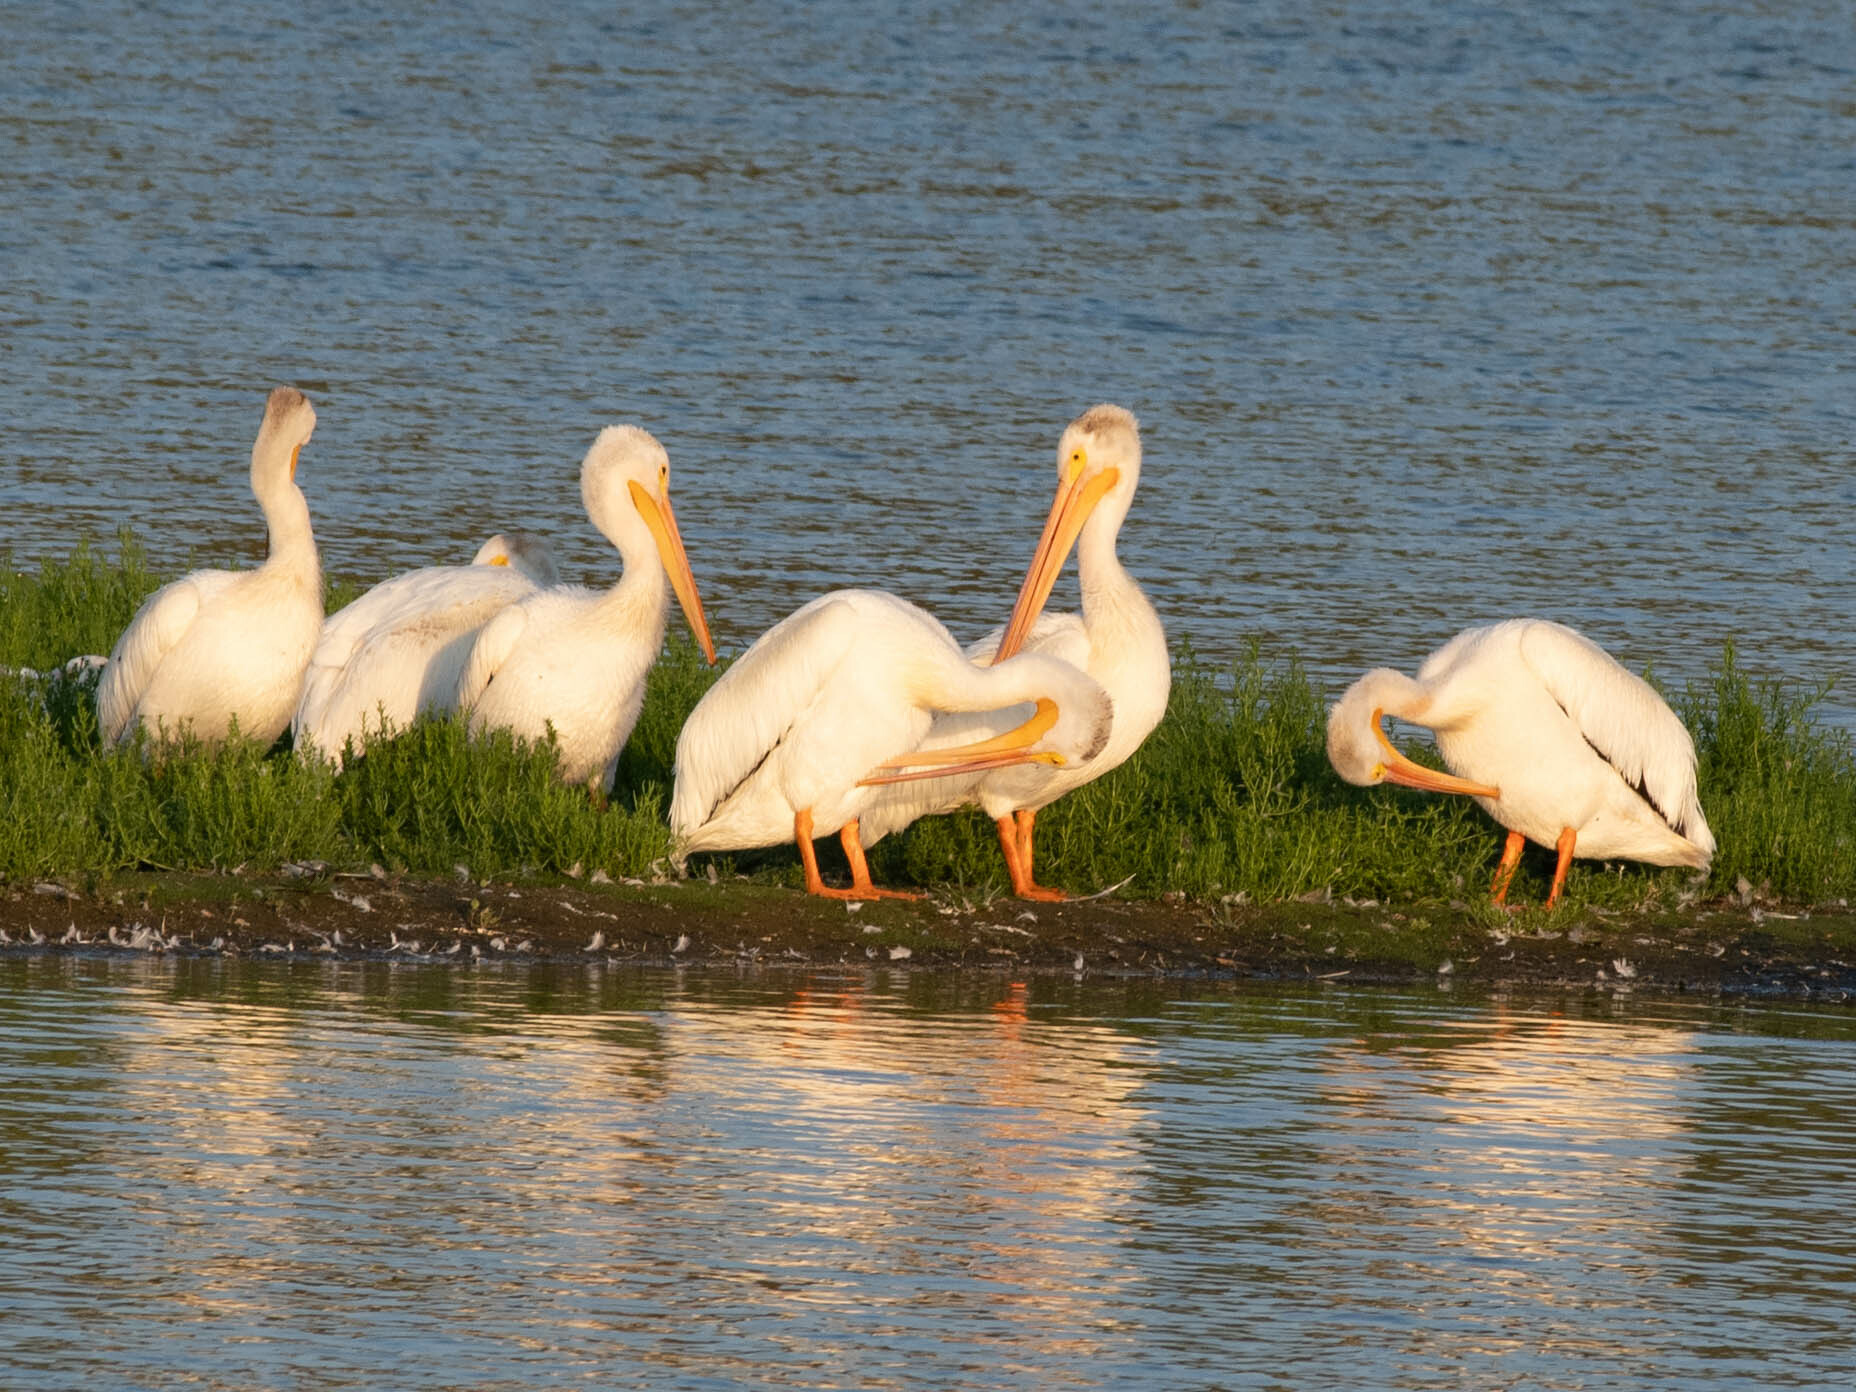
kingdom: Animalia
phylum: Chordata
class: Aves
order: Pelecaniformes
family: Pelecanidae
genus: Pelecanus
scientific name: Pelecanus erythrorhynchos
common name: American white pelican
